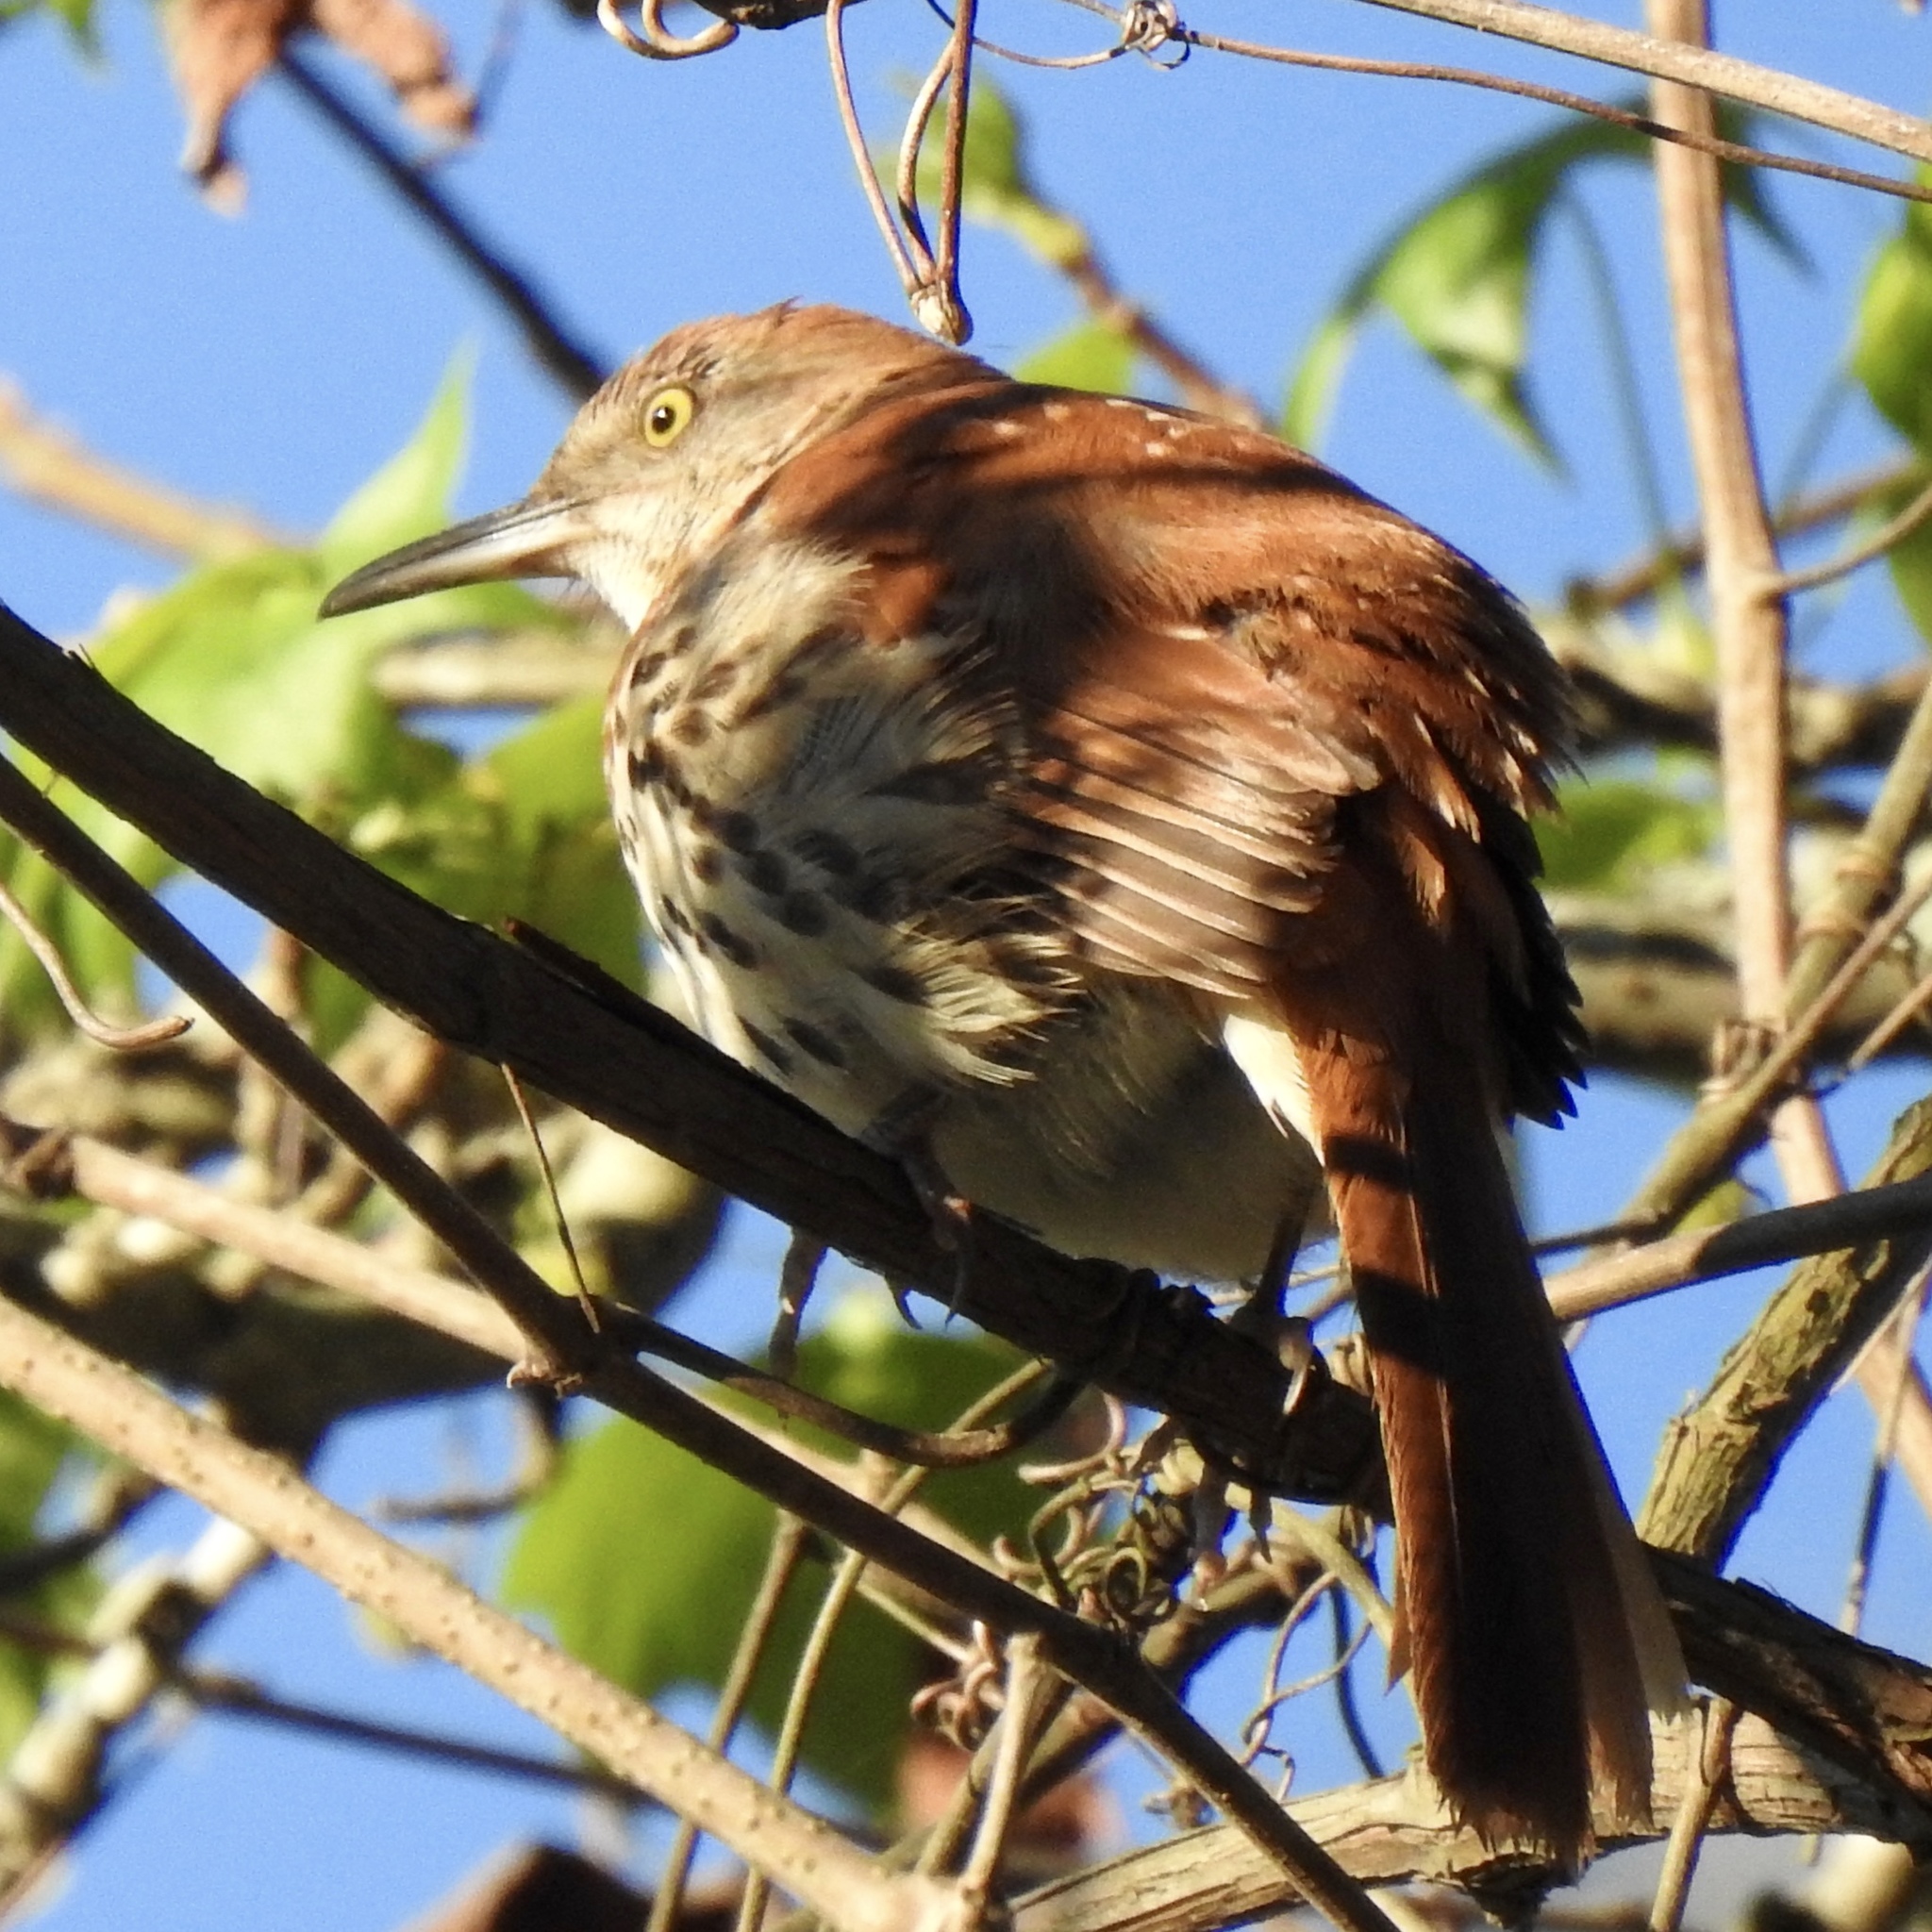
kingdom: Animalia
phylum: Chordata
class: Aves
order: Passeriformes
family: Mimidae
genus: Toxostoma
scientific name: Toxostoma rufum
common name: Brown thrasher
